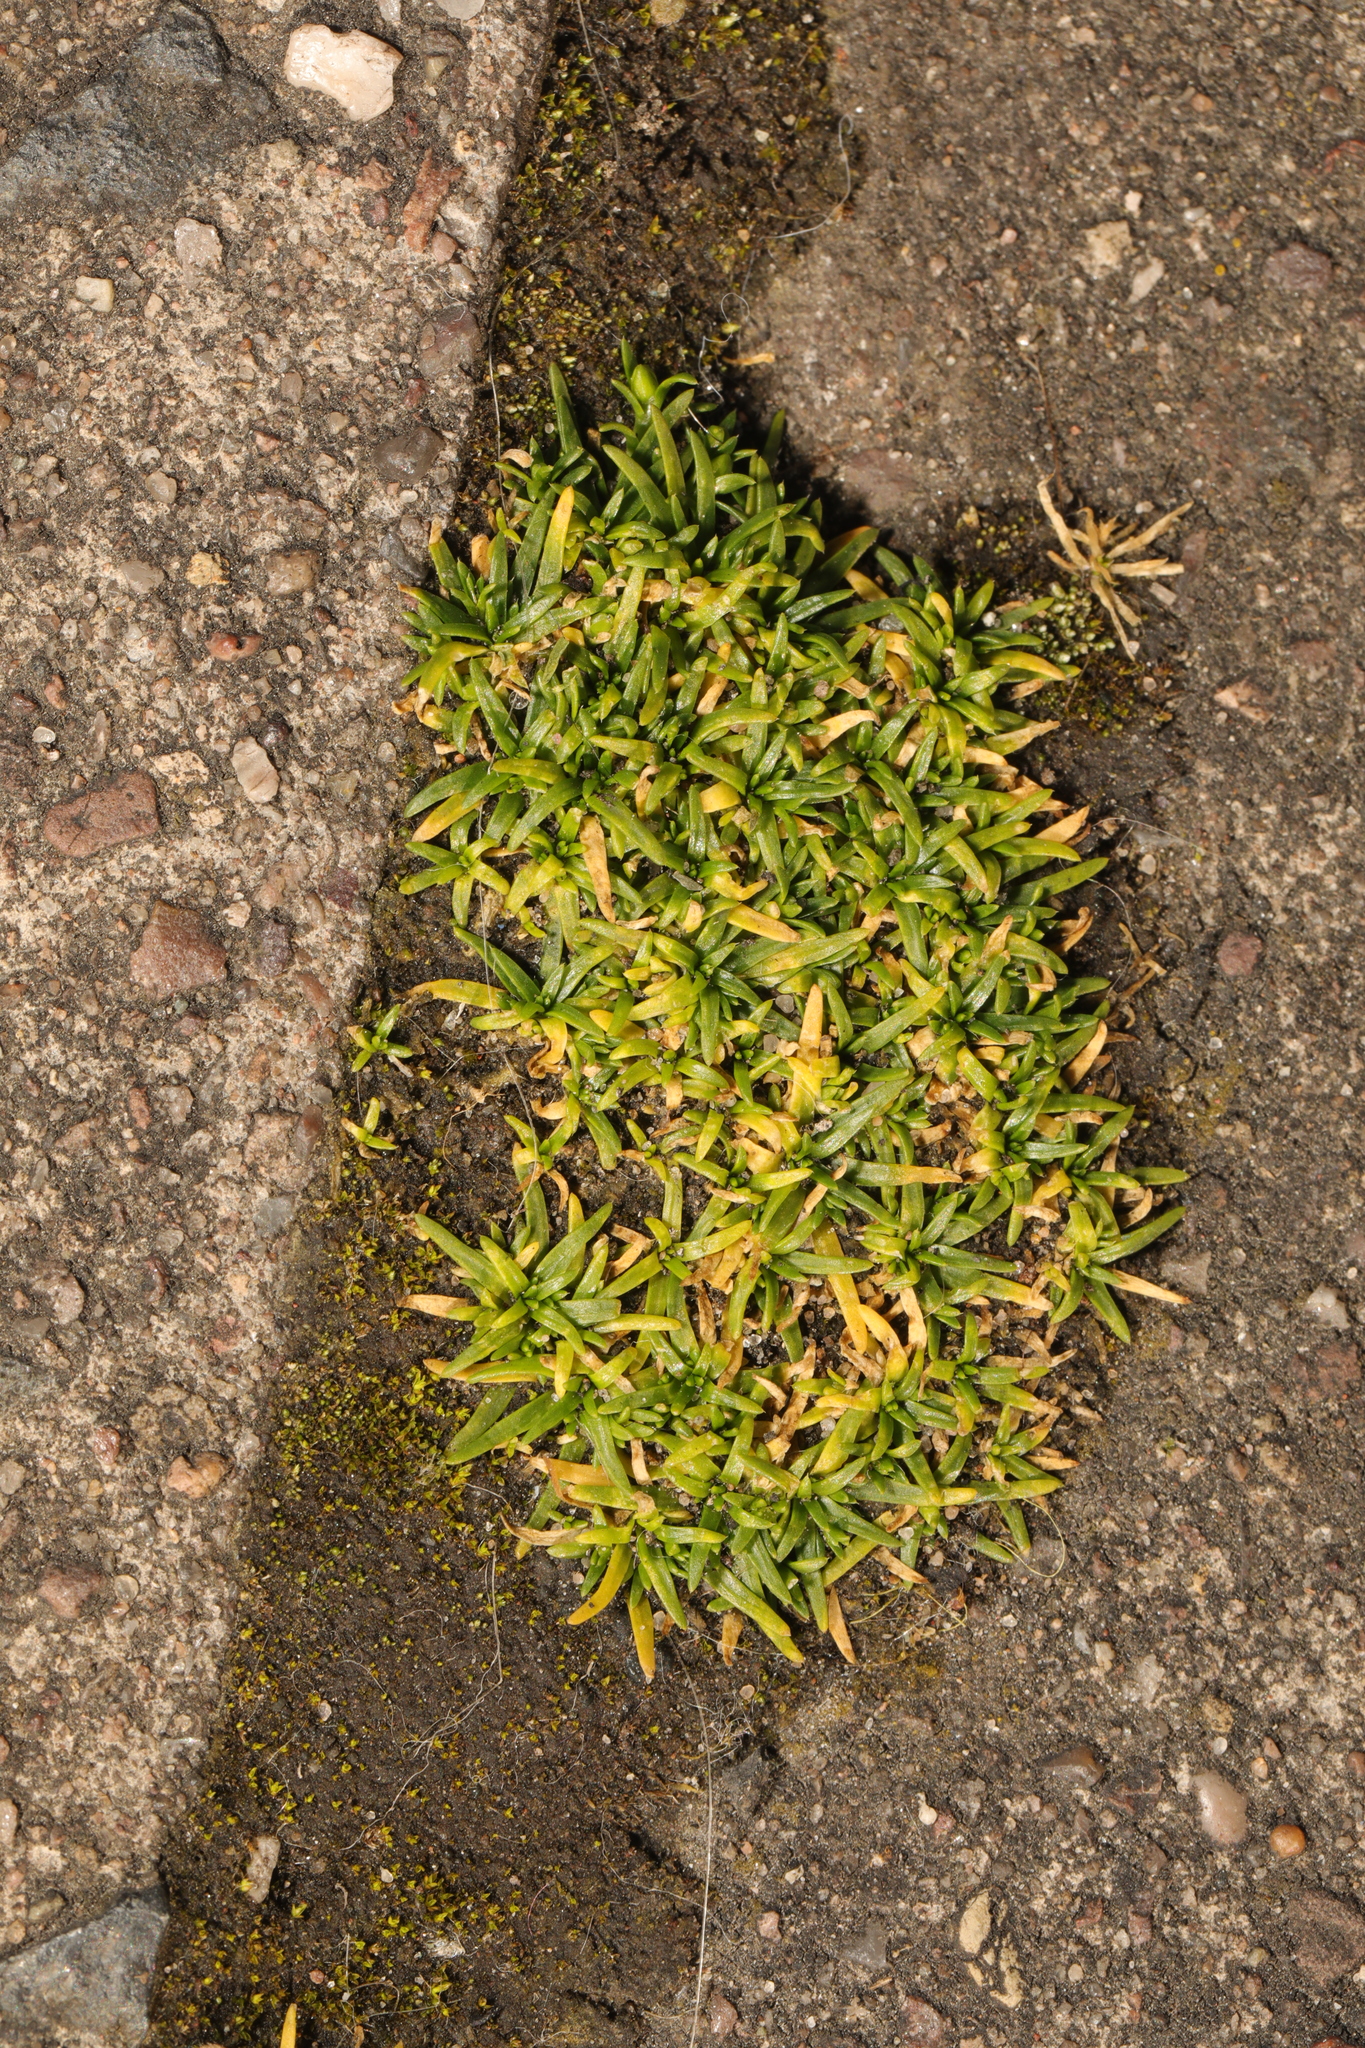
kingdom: Plantae
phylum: Tracheophyta
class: Magnoliopsida
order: Caryophyllales
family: Caryophyllaceae
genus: Sagina
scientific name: Sagina procumbens
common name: Procumbent pearlwort
